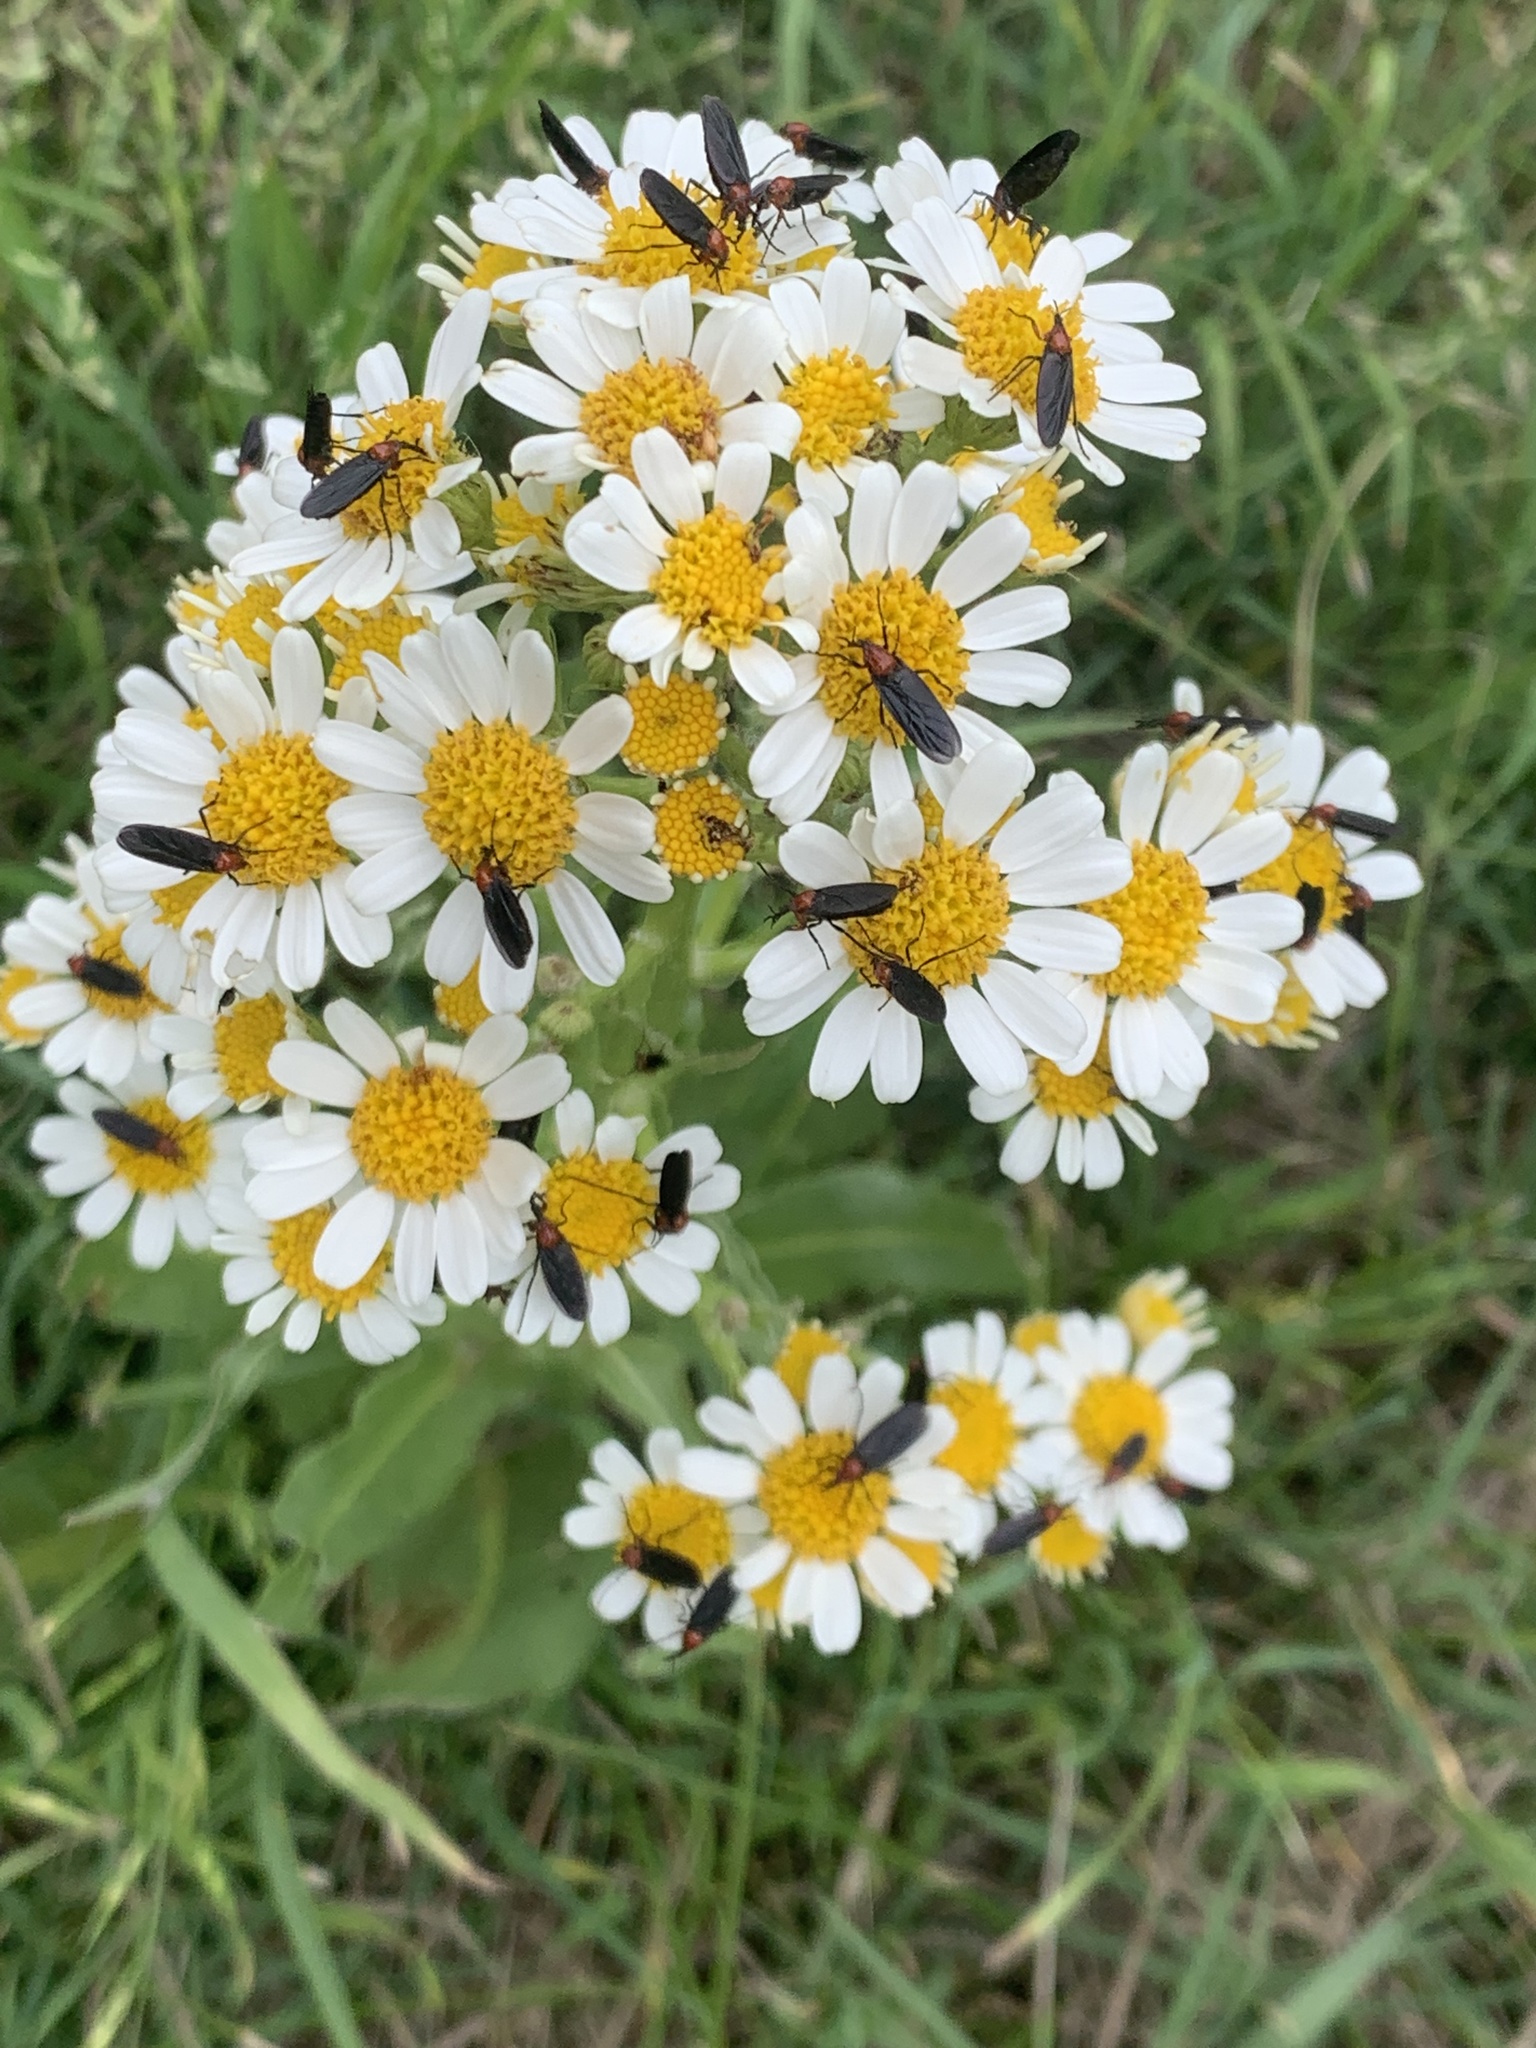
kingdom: Animalia
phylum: Arthropoda
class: Insecta
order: Diptera
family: Bibionidae
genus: Dilophus
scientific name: Dilophus pectoralis
